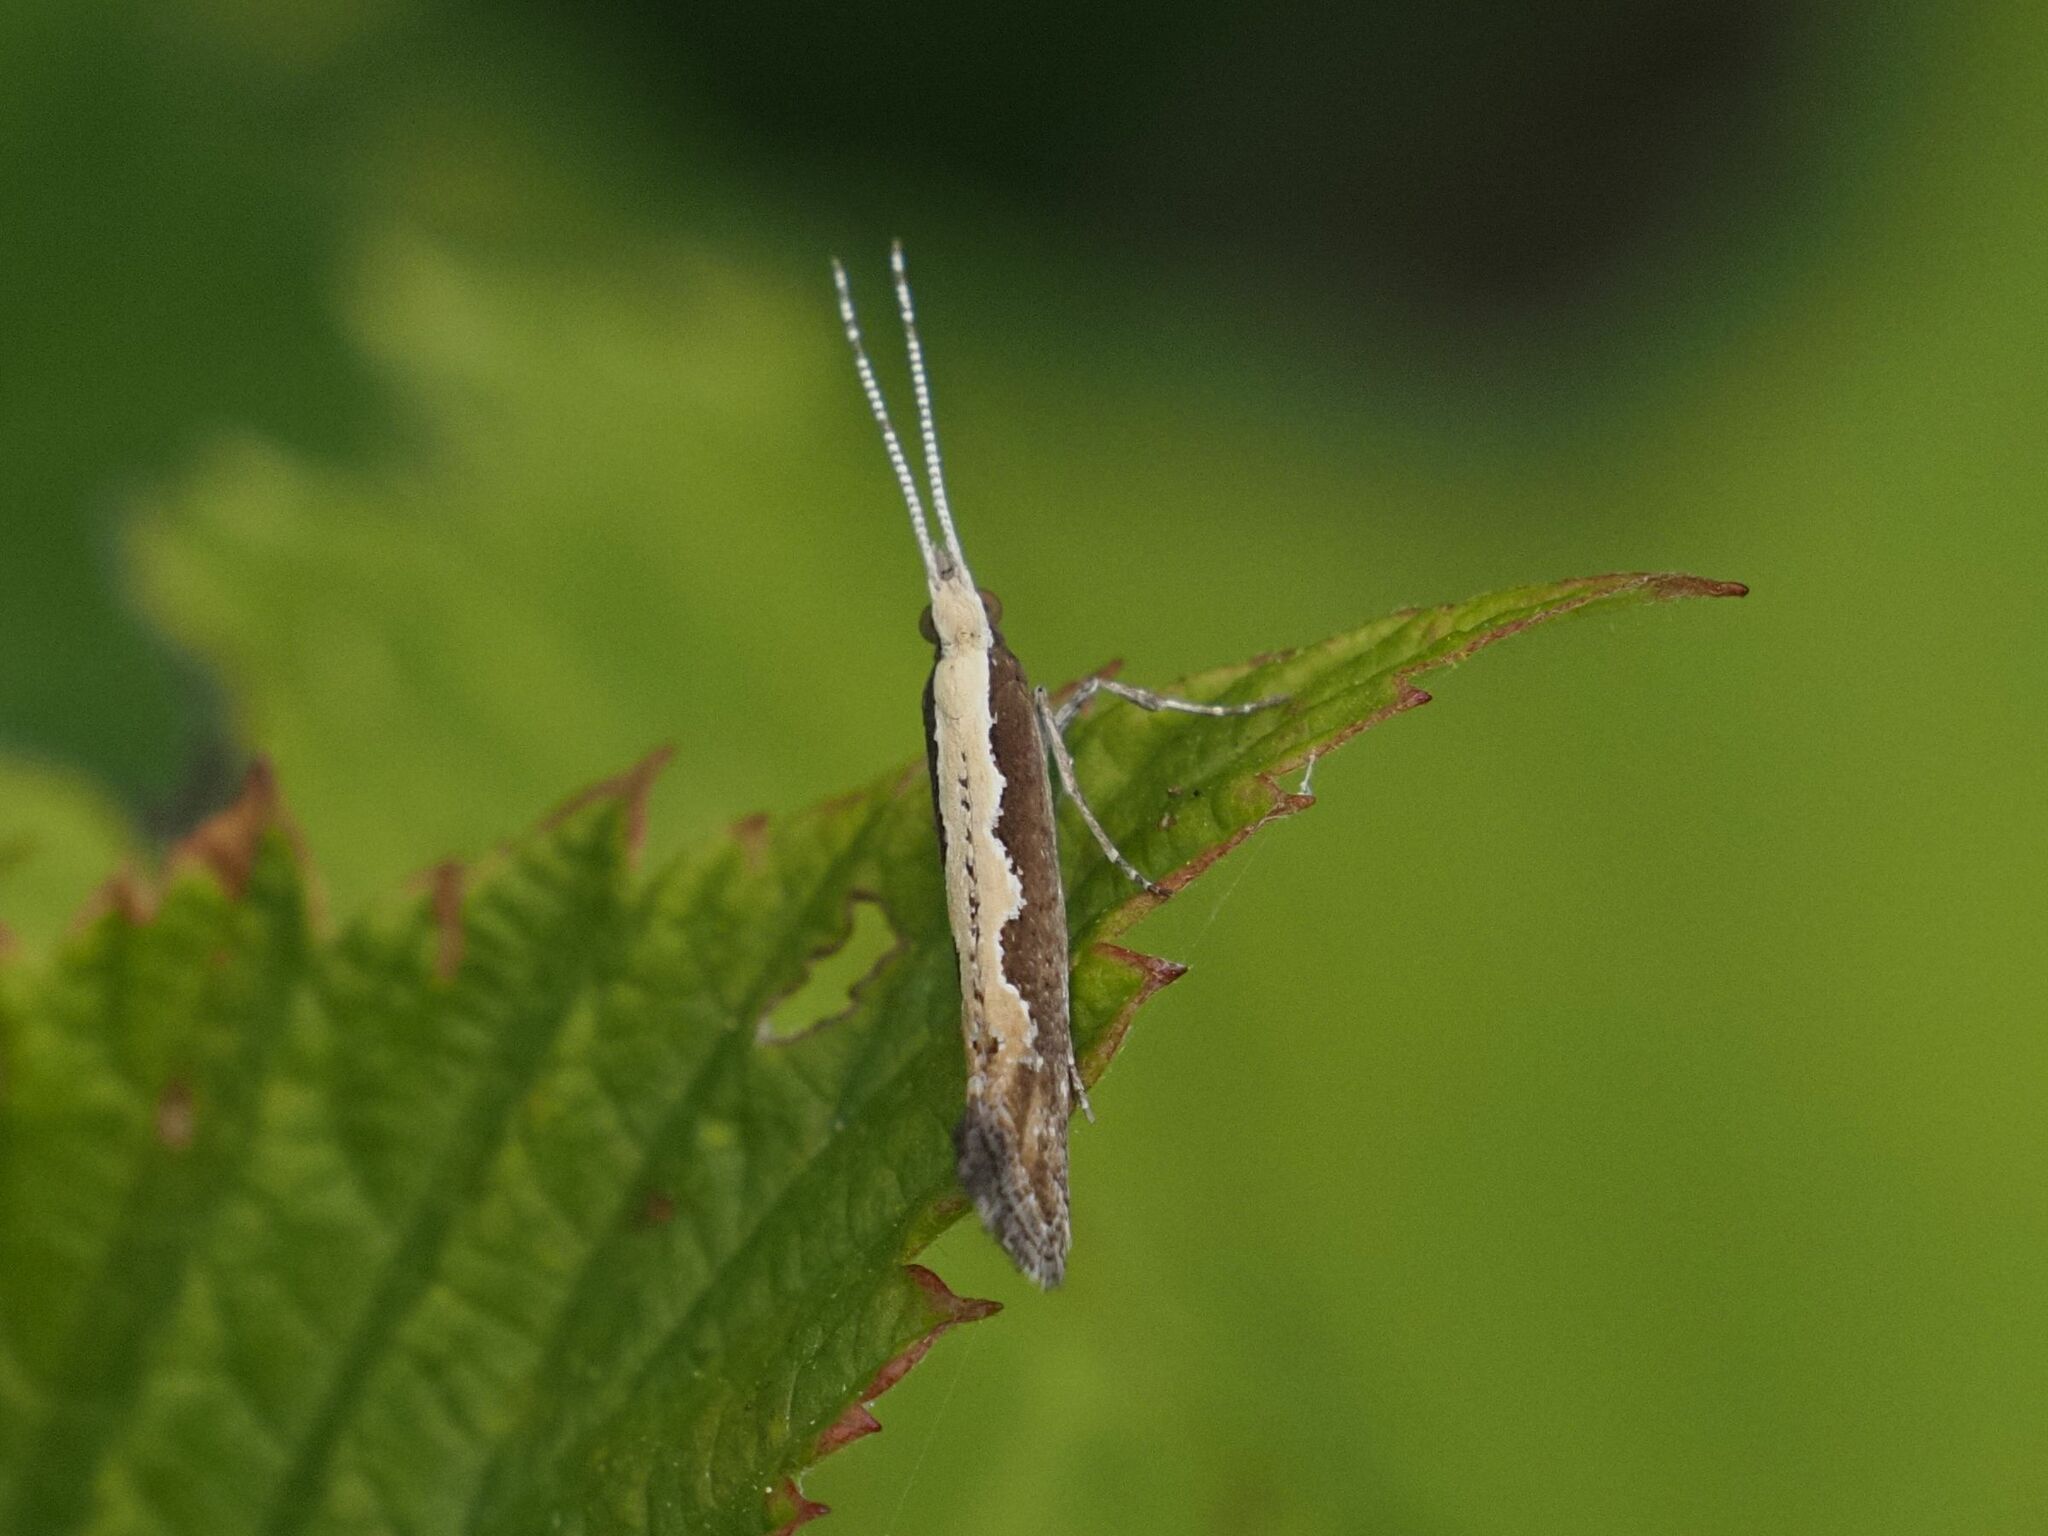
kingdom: Animalia
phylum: Arthropoda
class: Insecta
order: Lepidoptera
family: Plutellidae
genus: Plutella
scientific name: Plutella xylostella
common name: Diamond-back moth
